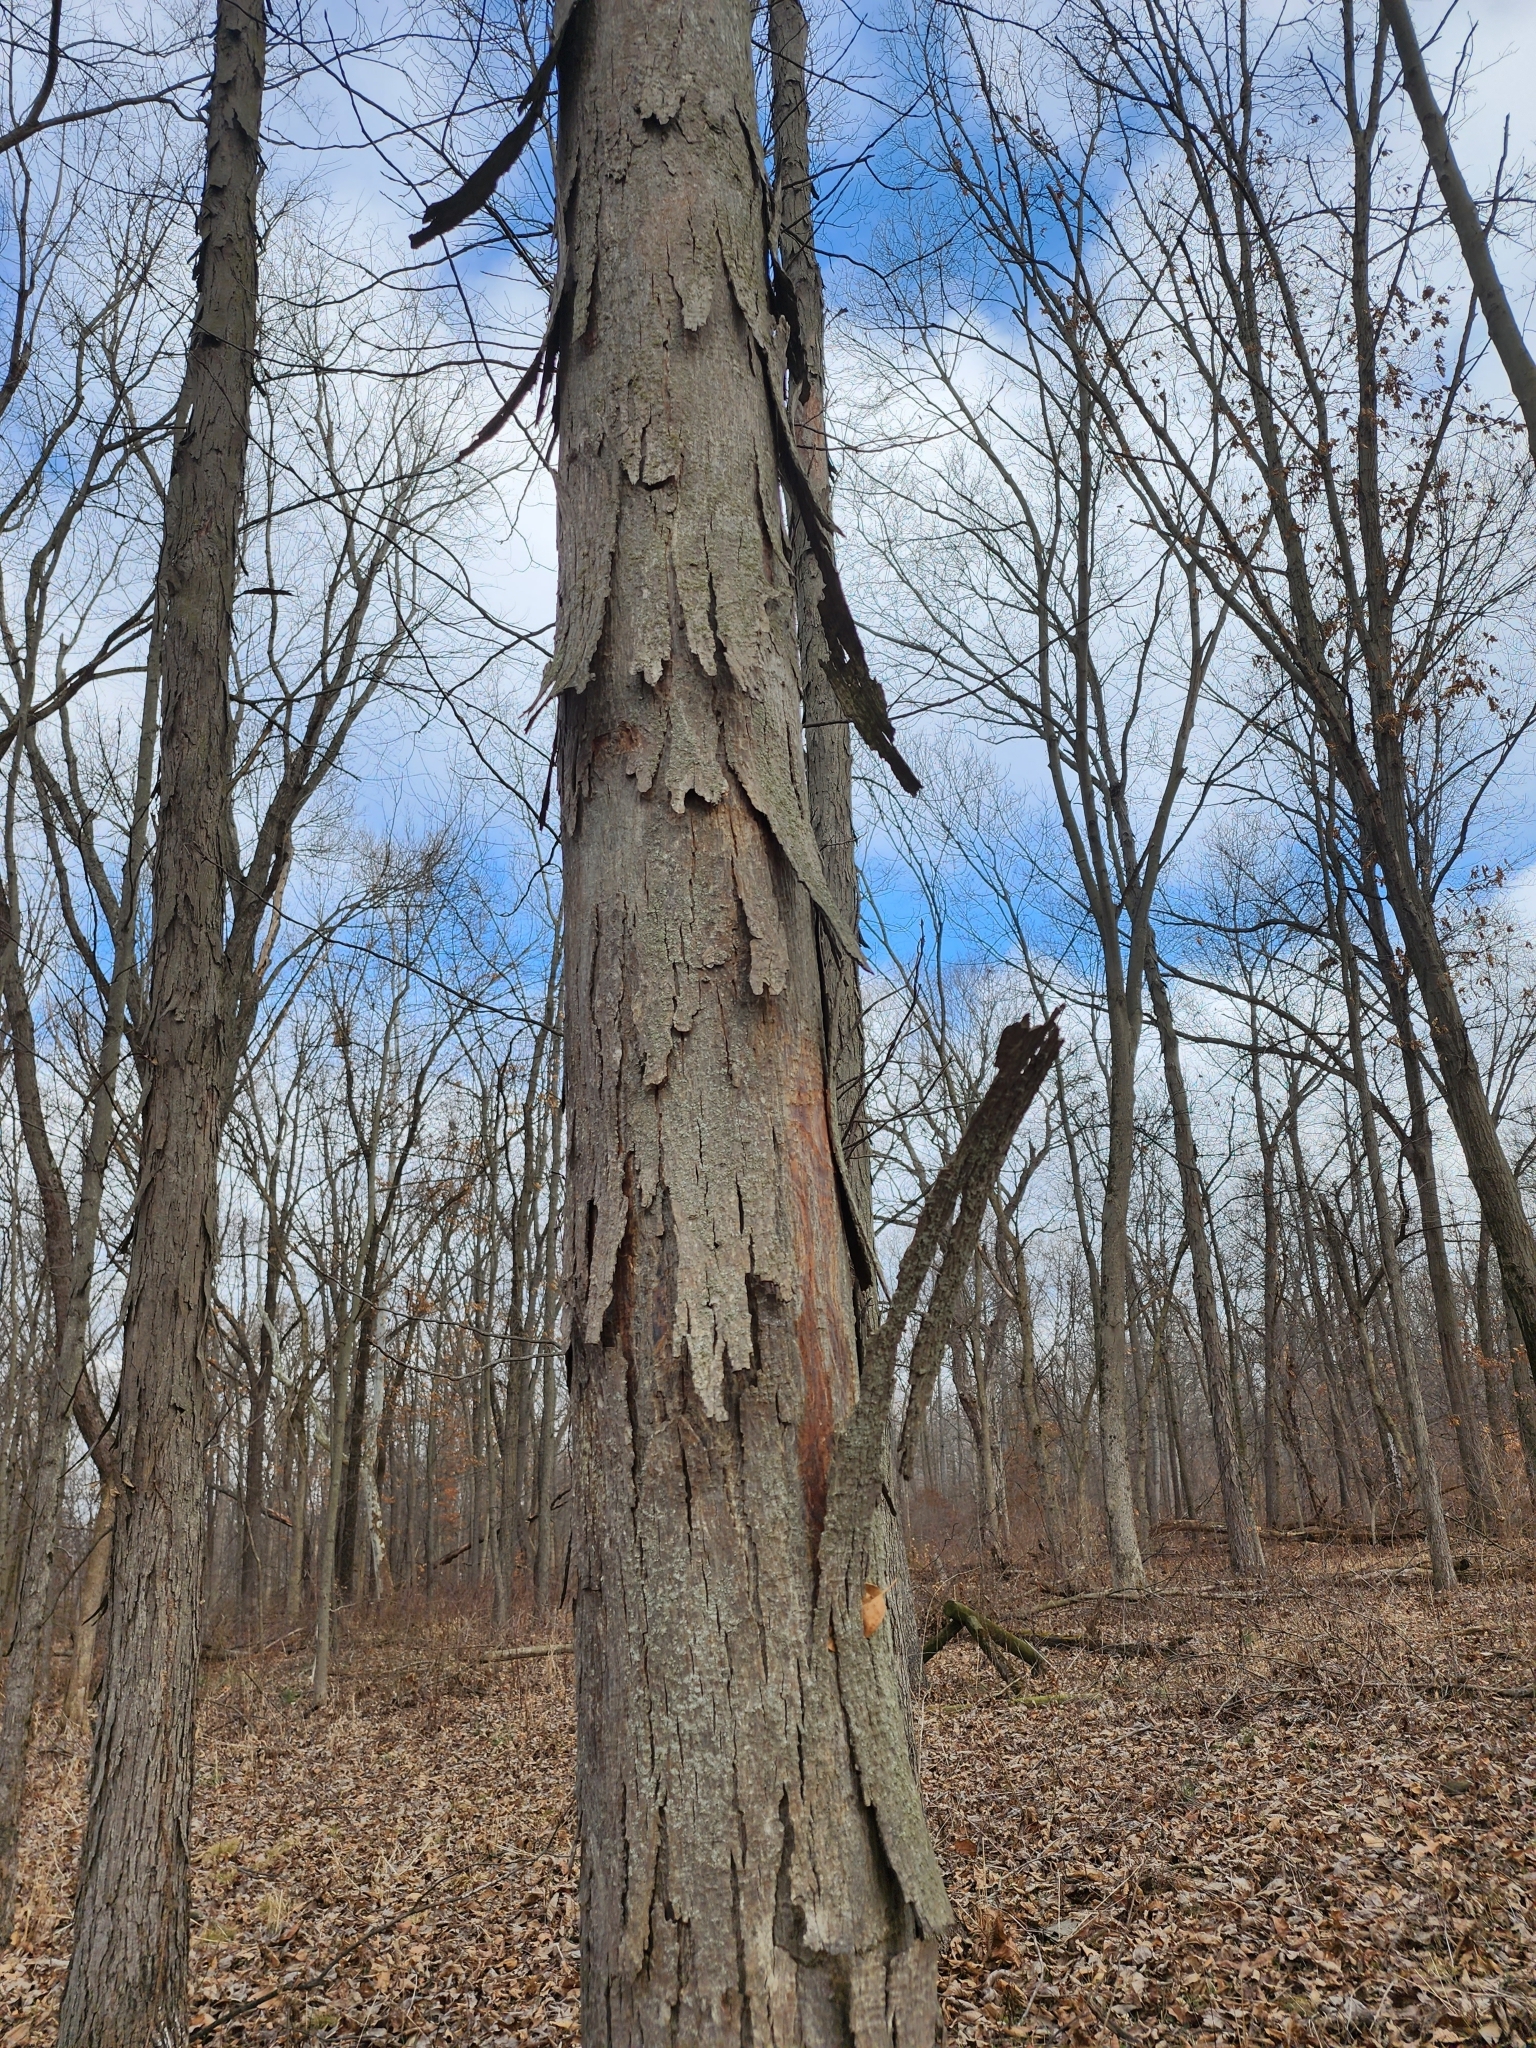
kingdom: Plantae
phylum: Tracheophyta
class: Magnoliopsida
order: Fagales
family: Juglandaceae
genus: Carya
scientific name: Carya ovata
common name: Shagbark hickory
